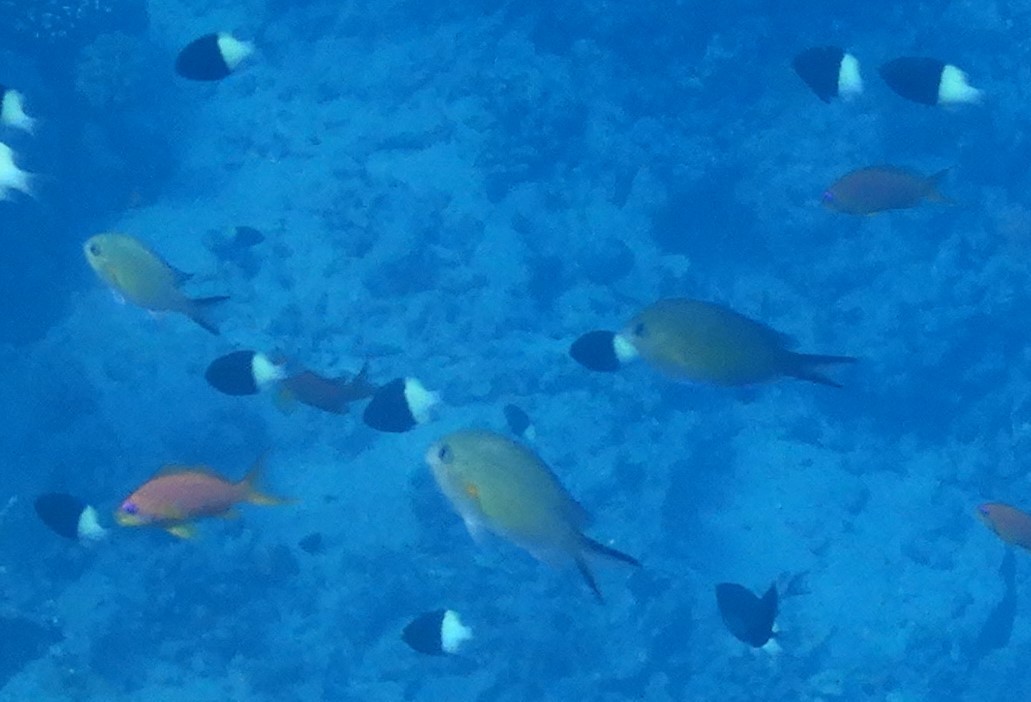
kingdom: Animalia
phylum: Chordata
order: Perciformes
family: Pomacentridae
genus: Chromis
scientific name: Chromis flavaxilla
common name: Arabian chromis
